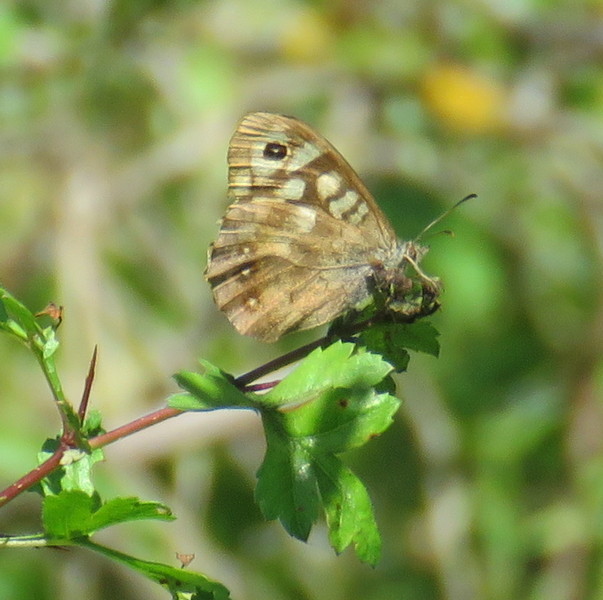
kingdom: Animalia
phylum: Arthropoda
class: Insecta
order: Lepidoptera
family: Nymphalidae
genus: Pararge
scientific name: Pararge aegeria
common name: Speckled wood
